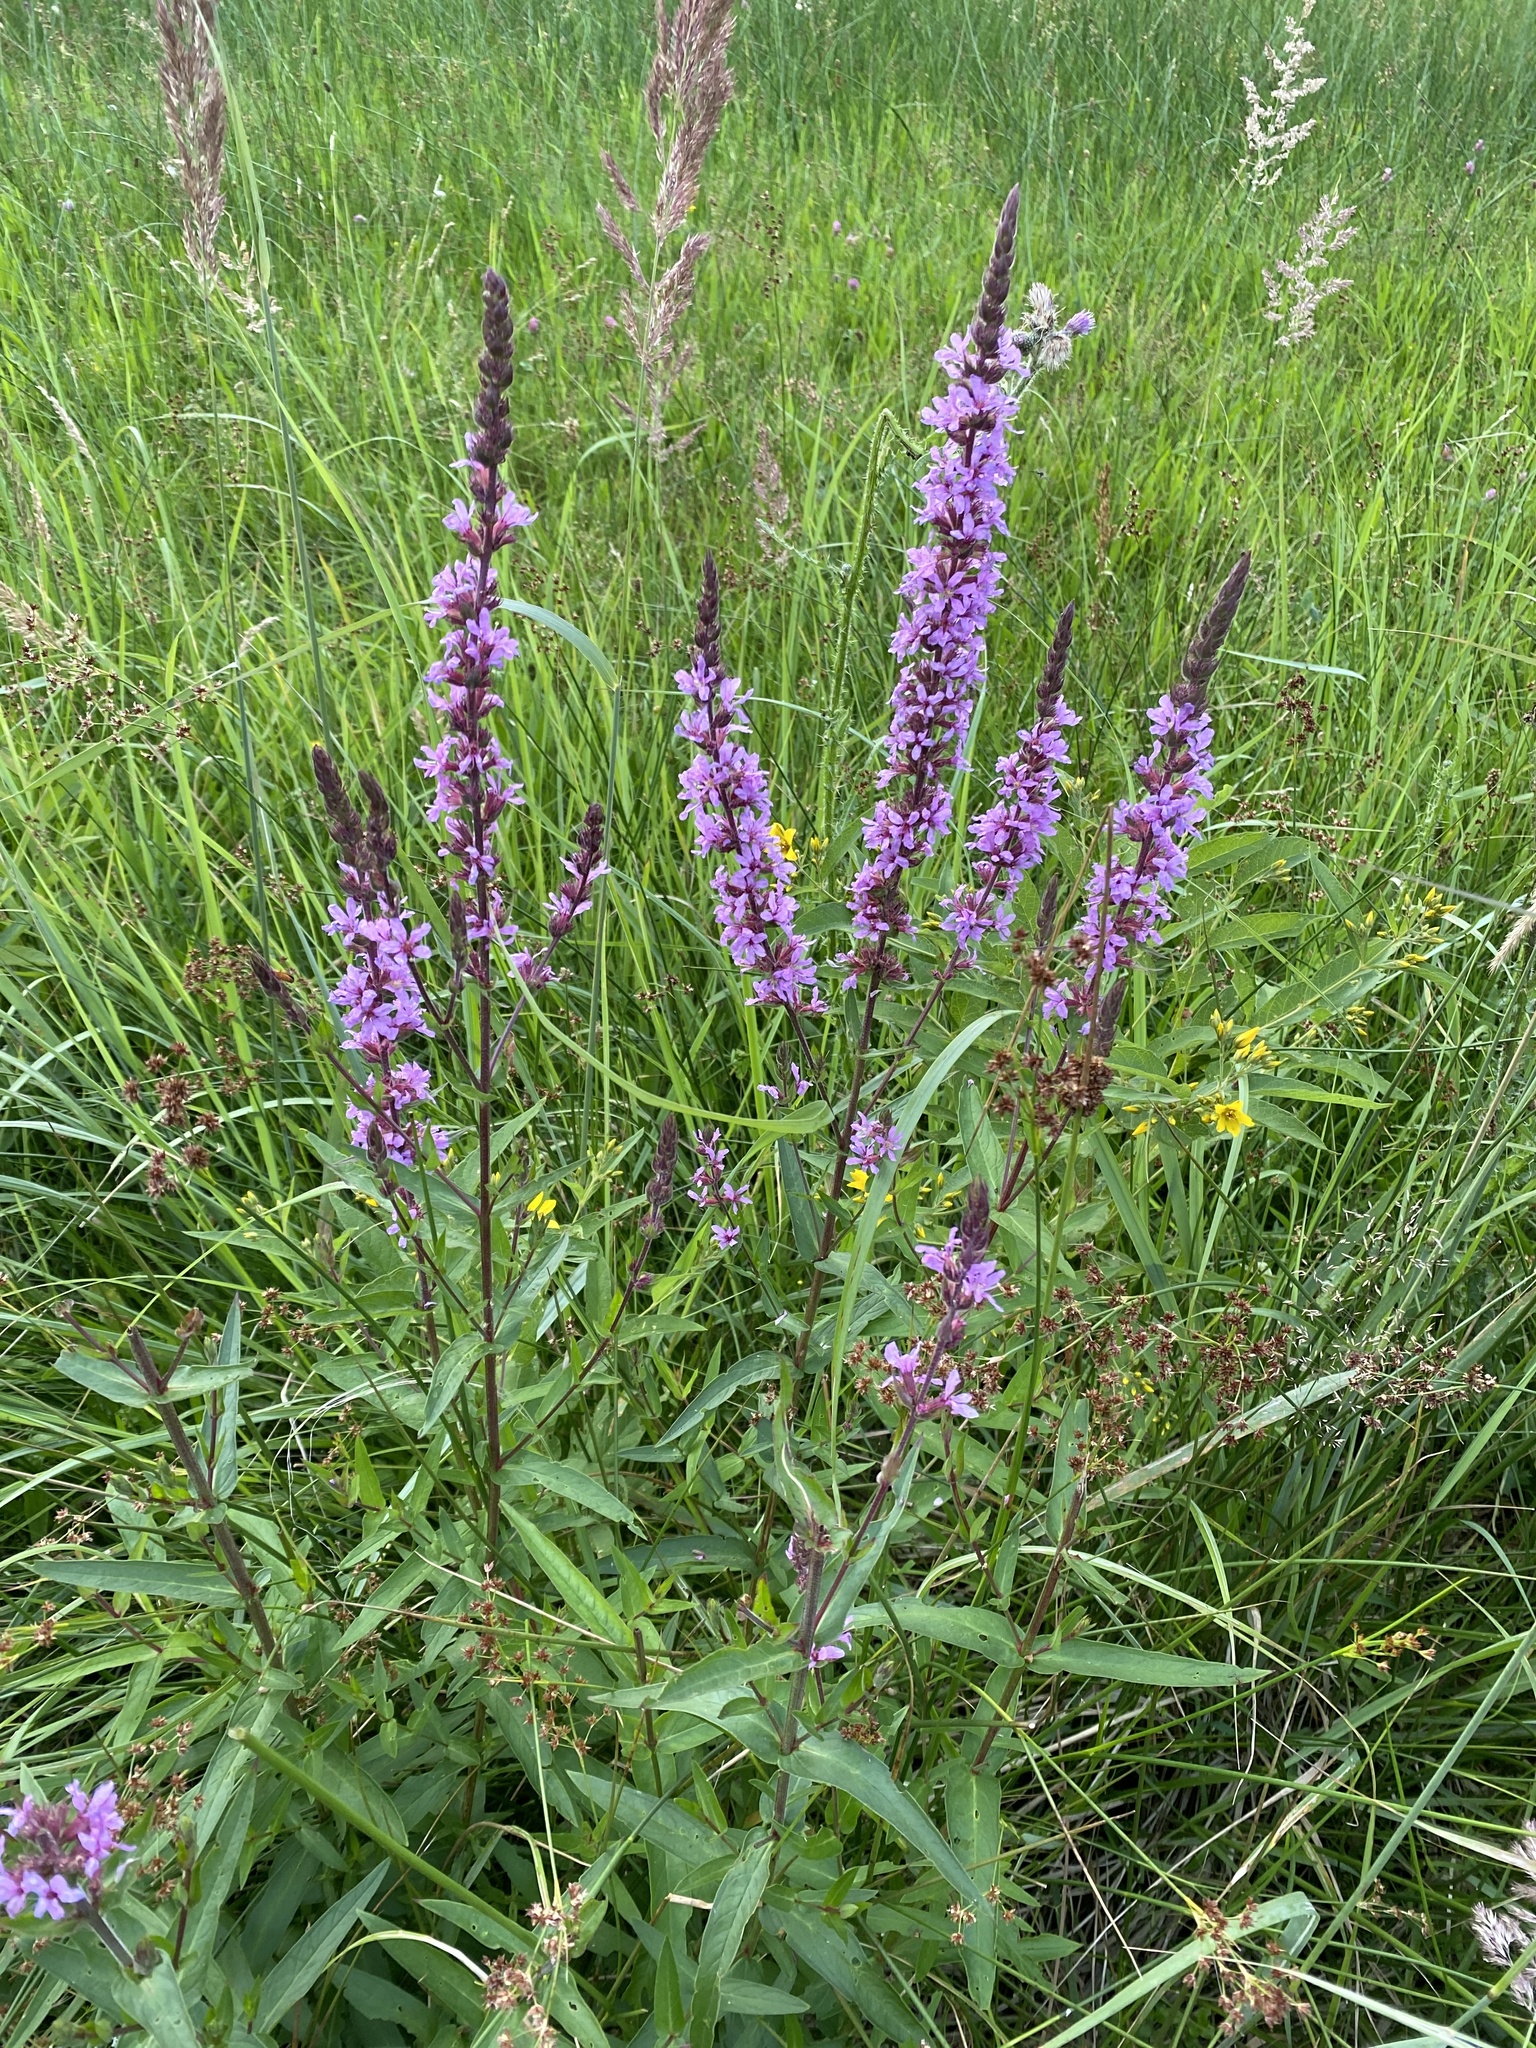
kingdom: Plantae
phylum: Tracheophyta
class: Magnoliopsida
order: Myrtales
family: Lythraceae
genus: Lythrum
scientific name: Lythrum salicaria
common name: Purple loosestrife
